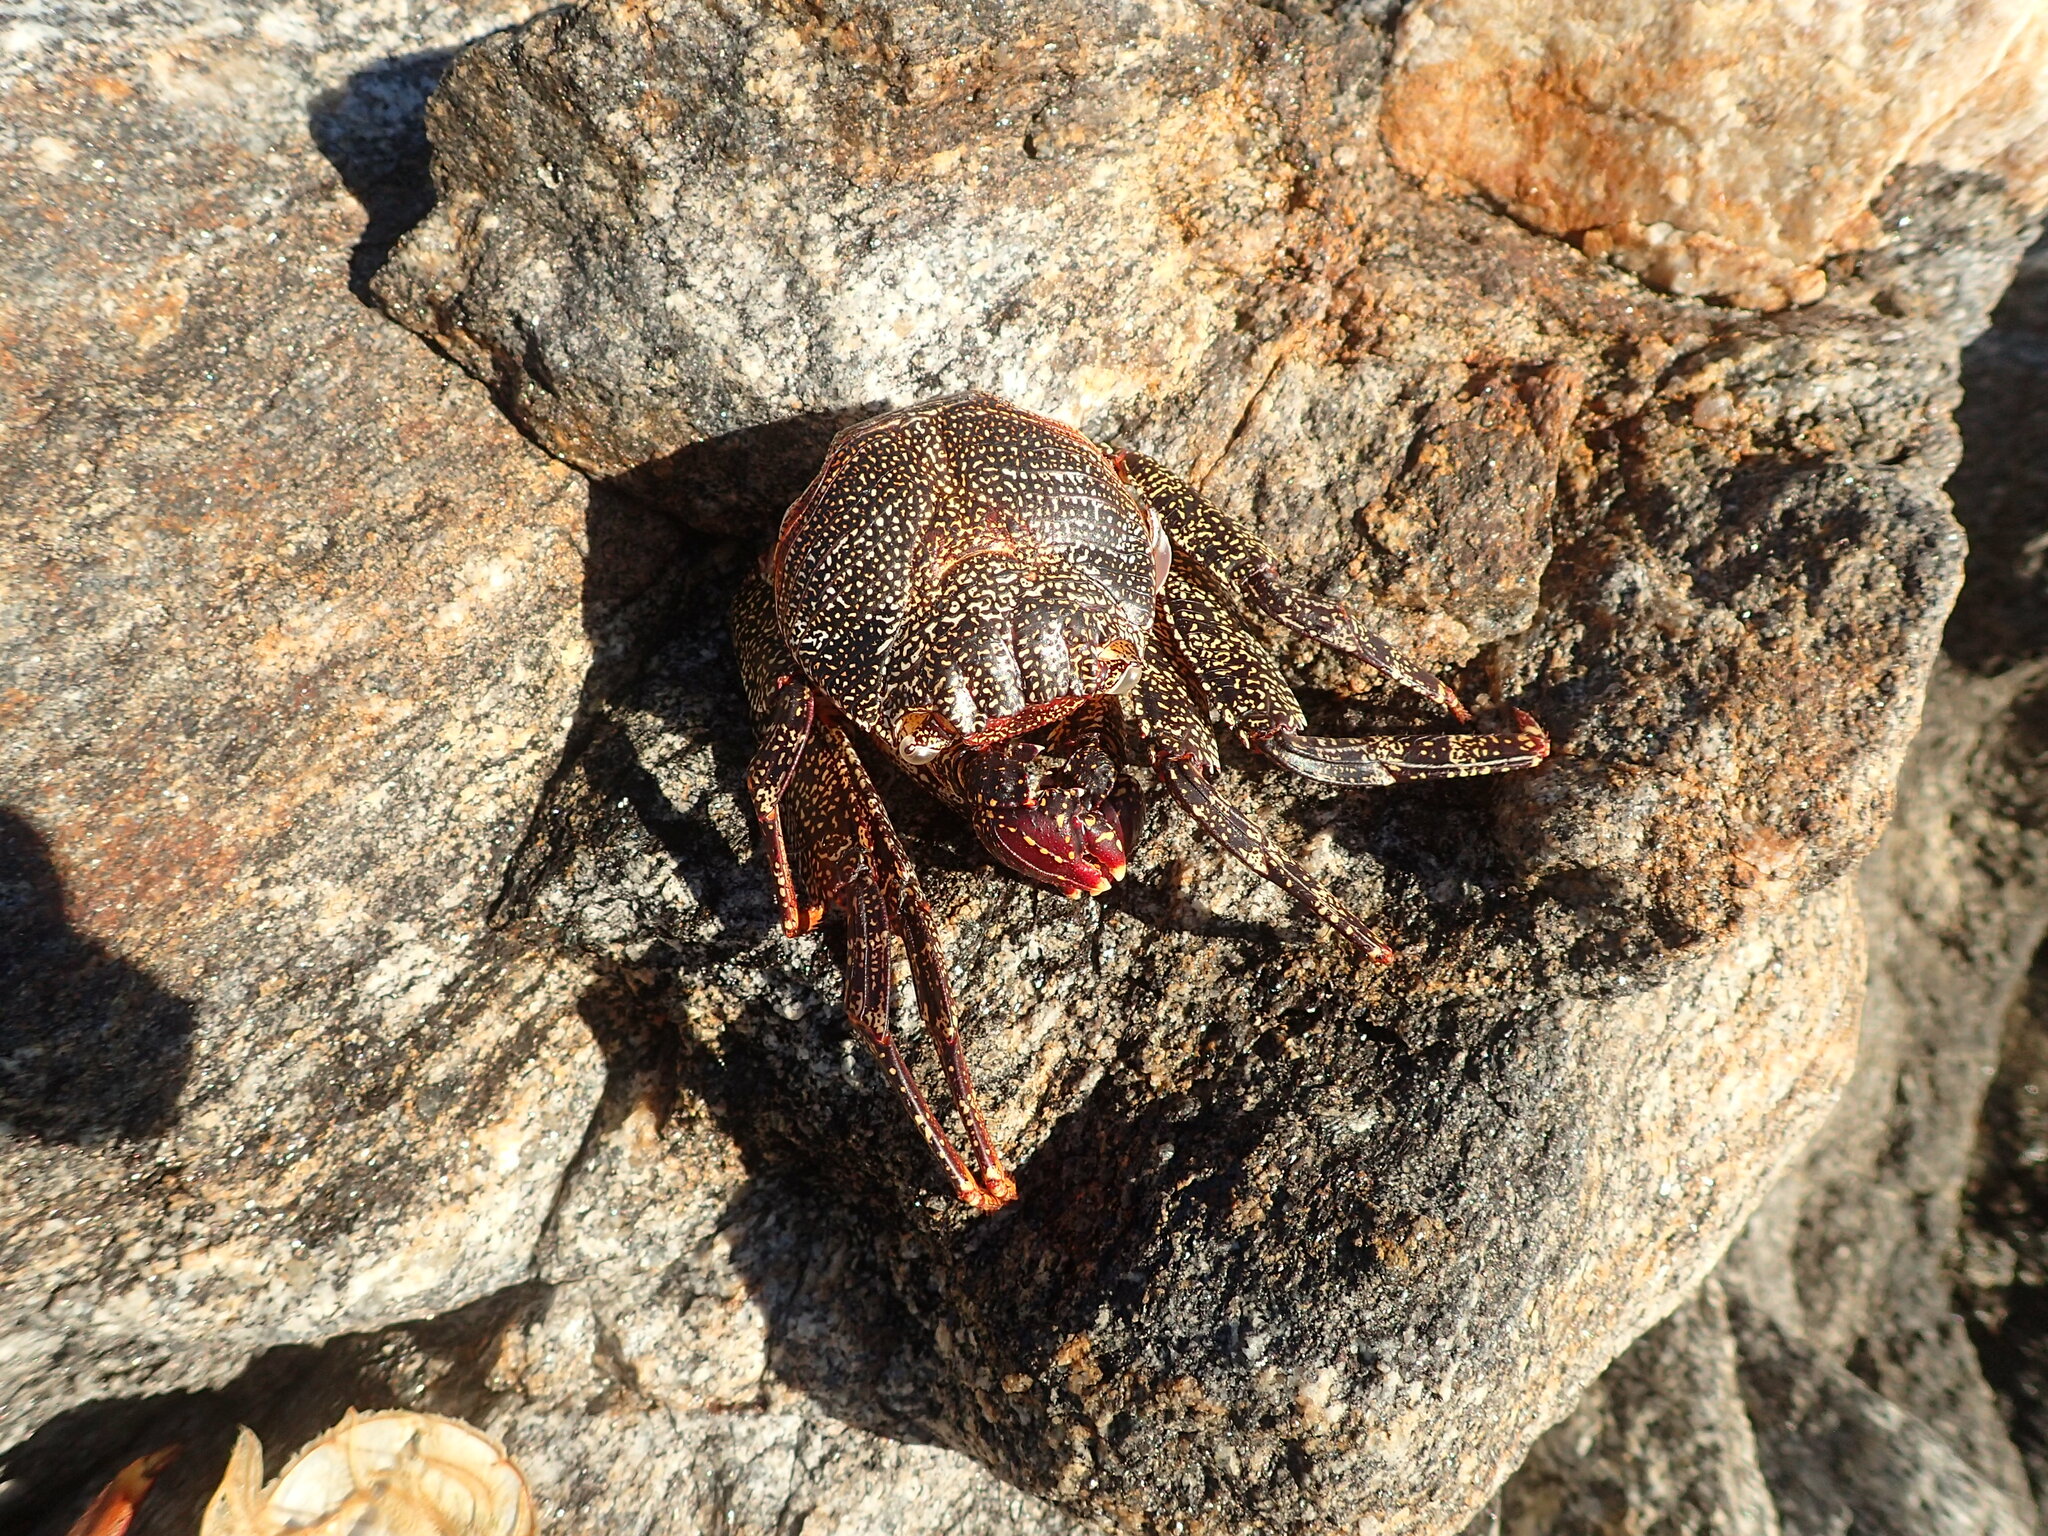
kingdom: Animalia
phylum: Arthropoda
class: Malacostraca
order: Decapoda
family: Grapsidae
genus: Grapsus
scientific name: Grapsus grapsus
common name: Sally lightfoot
